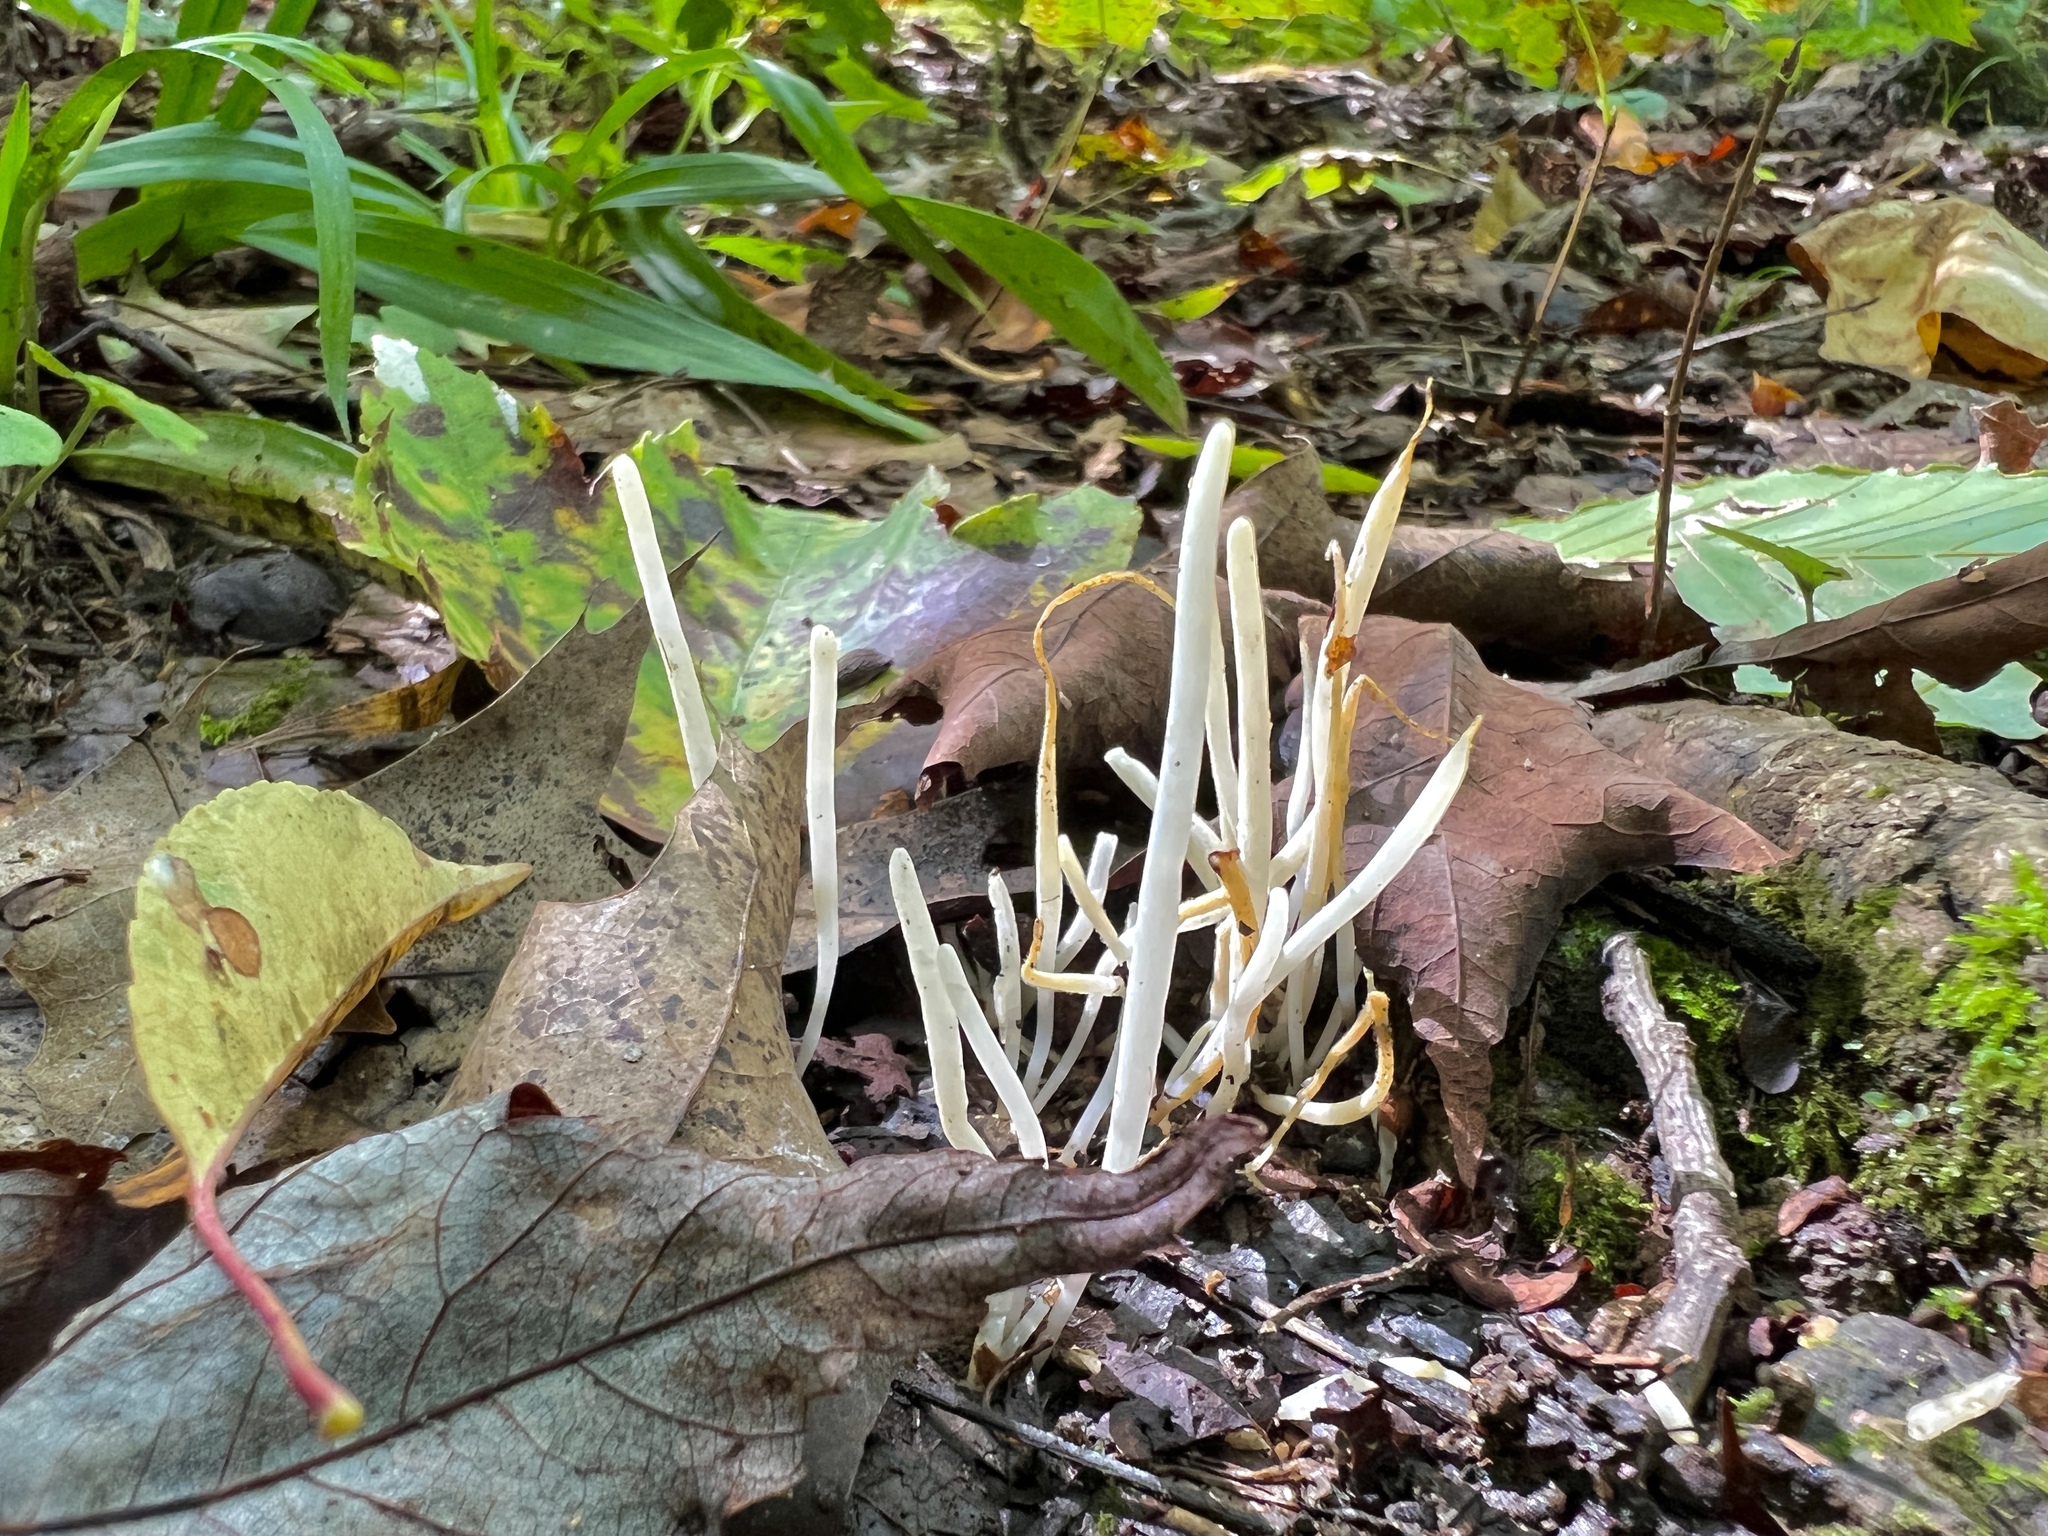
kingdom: Fungi
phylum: Basidiomycota
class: Agaricomycetes
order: Agaricales
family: Clavariaceae
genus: Clavaria
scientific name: Clavaria fragilis
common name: White spindles
